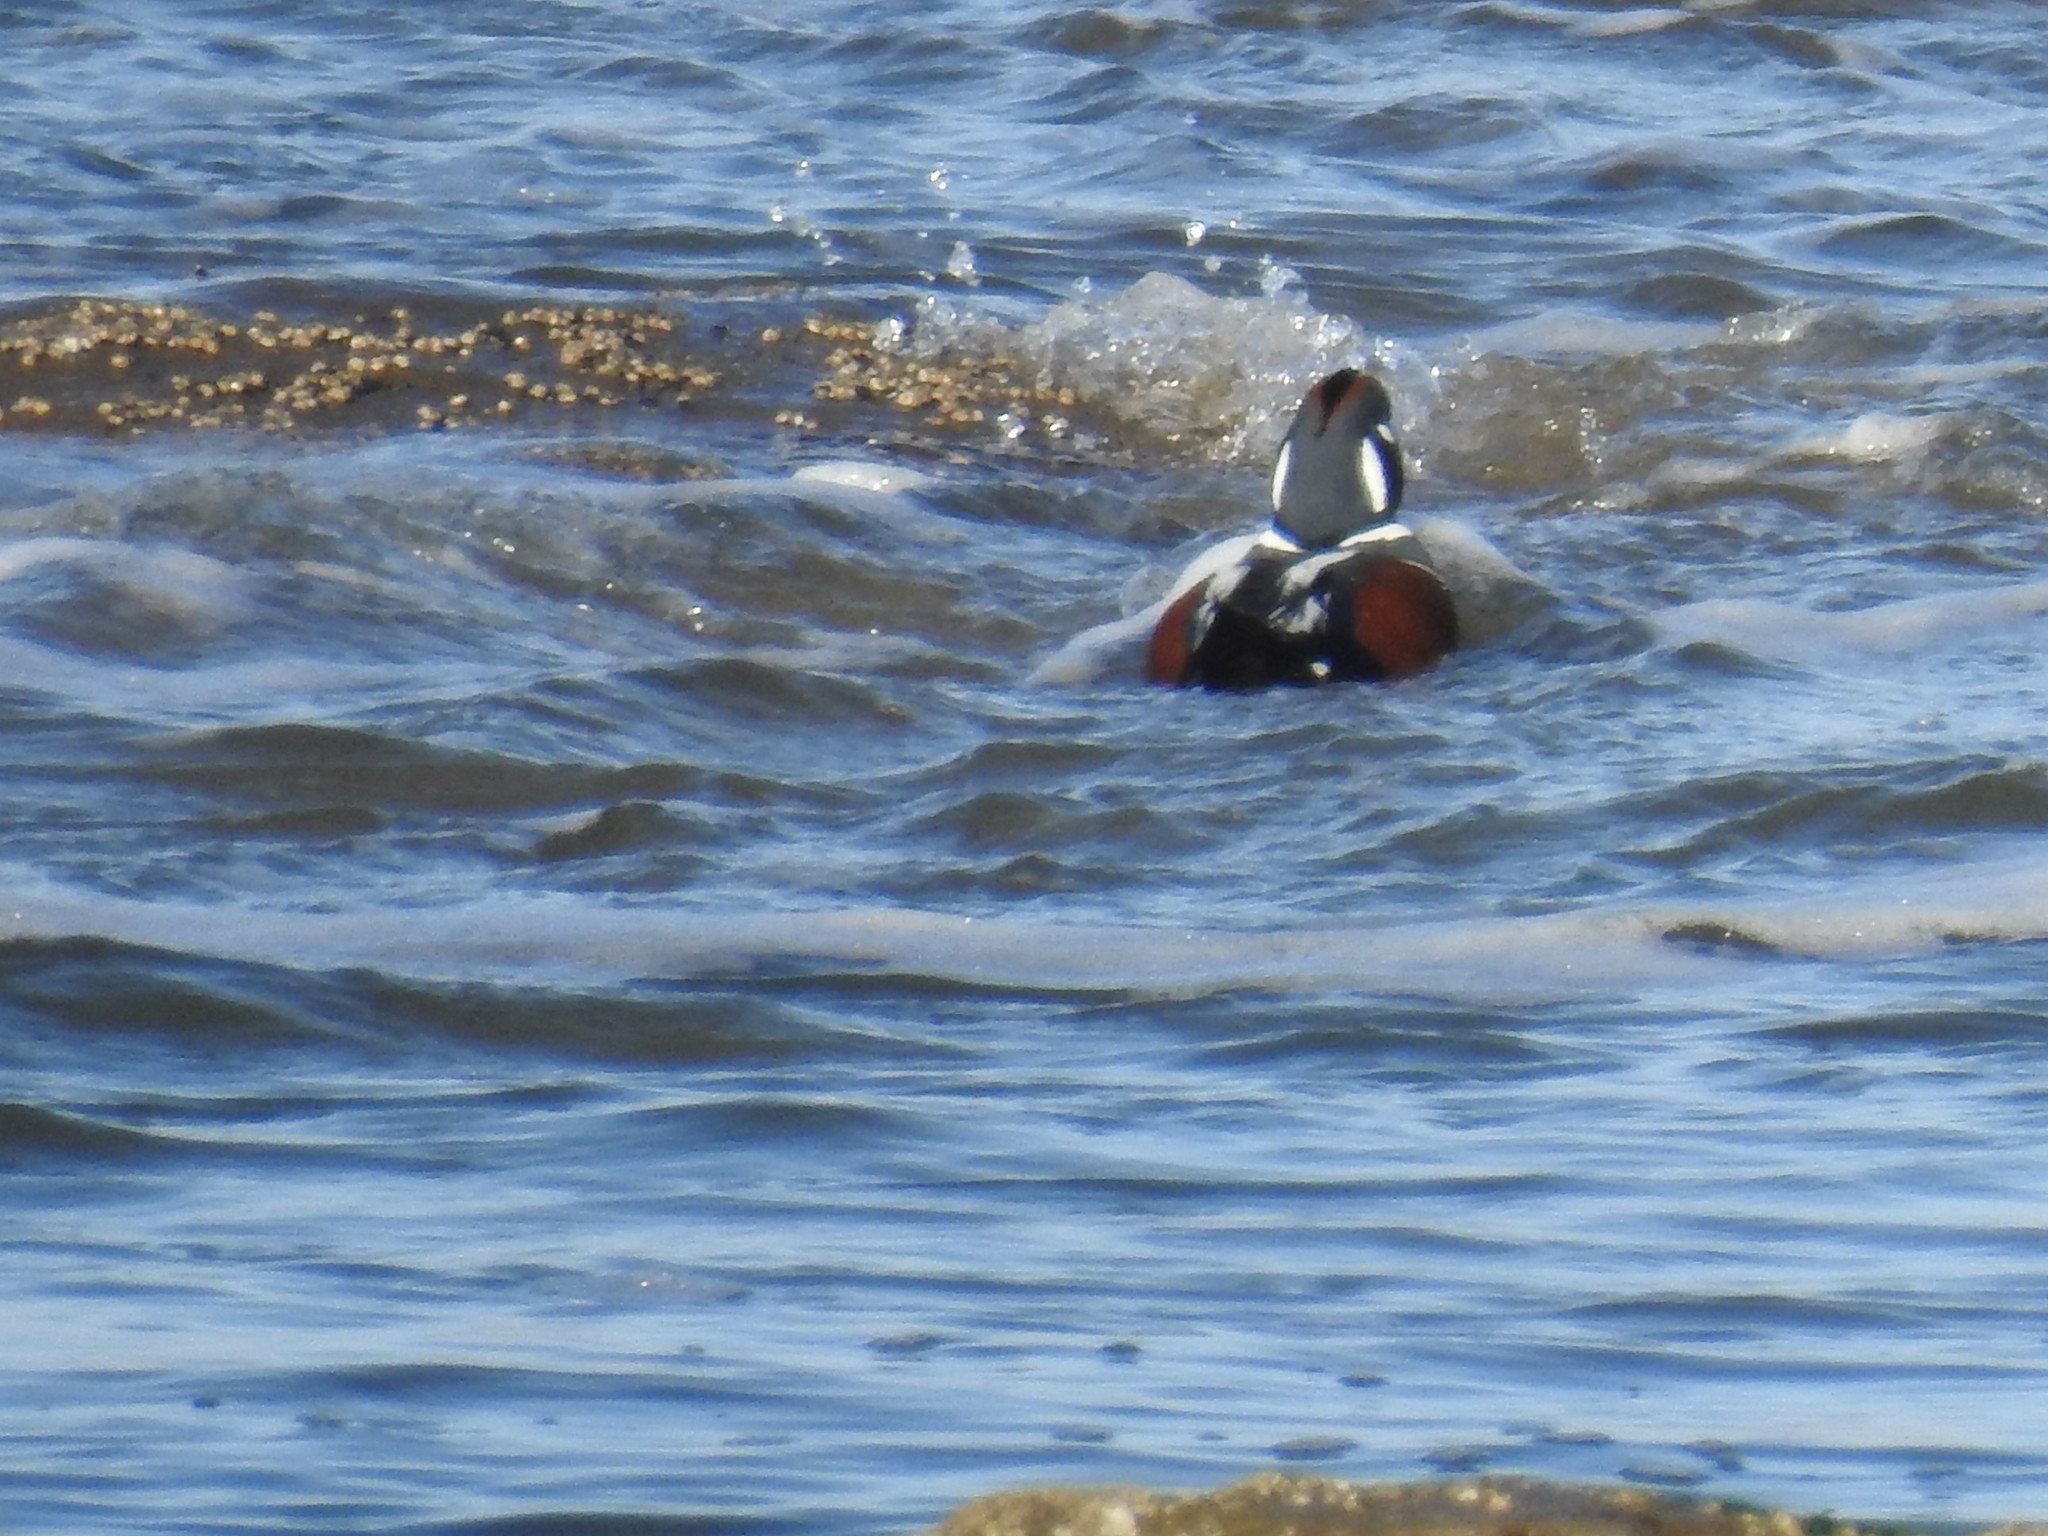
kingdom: Animalia
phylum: Chordata
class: Aves
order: Anseriformes
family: Anatidae
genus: Histrionicus
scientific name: Histrionicus histrionicus
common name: Harlequin duck
